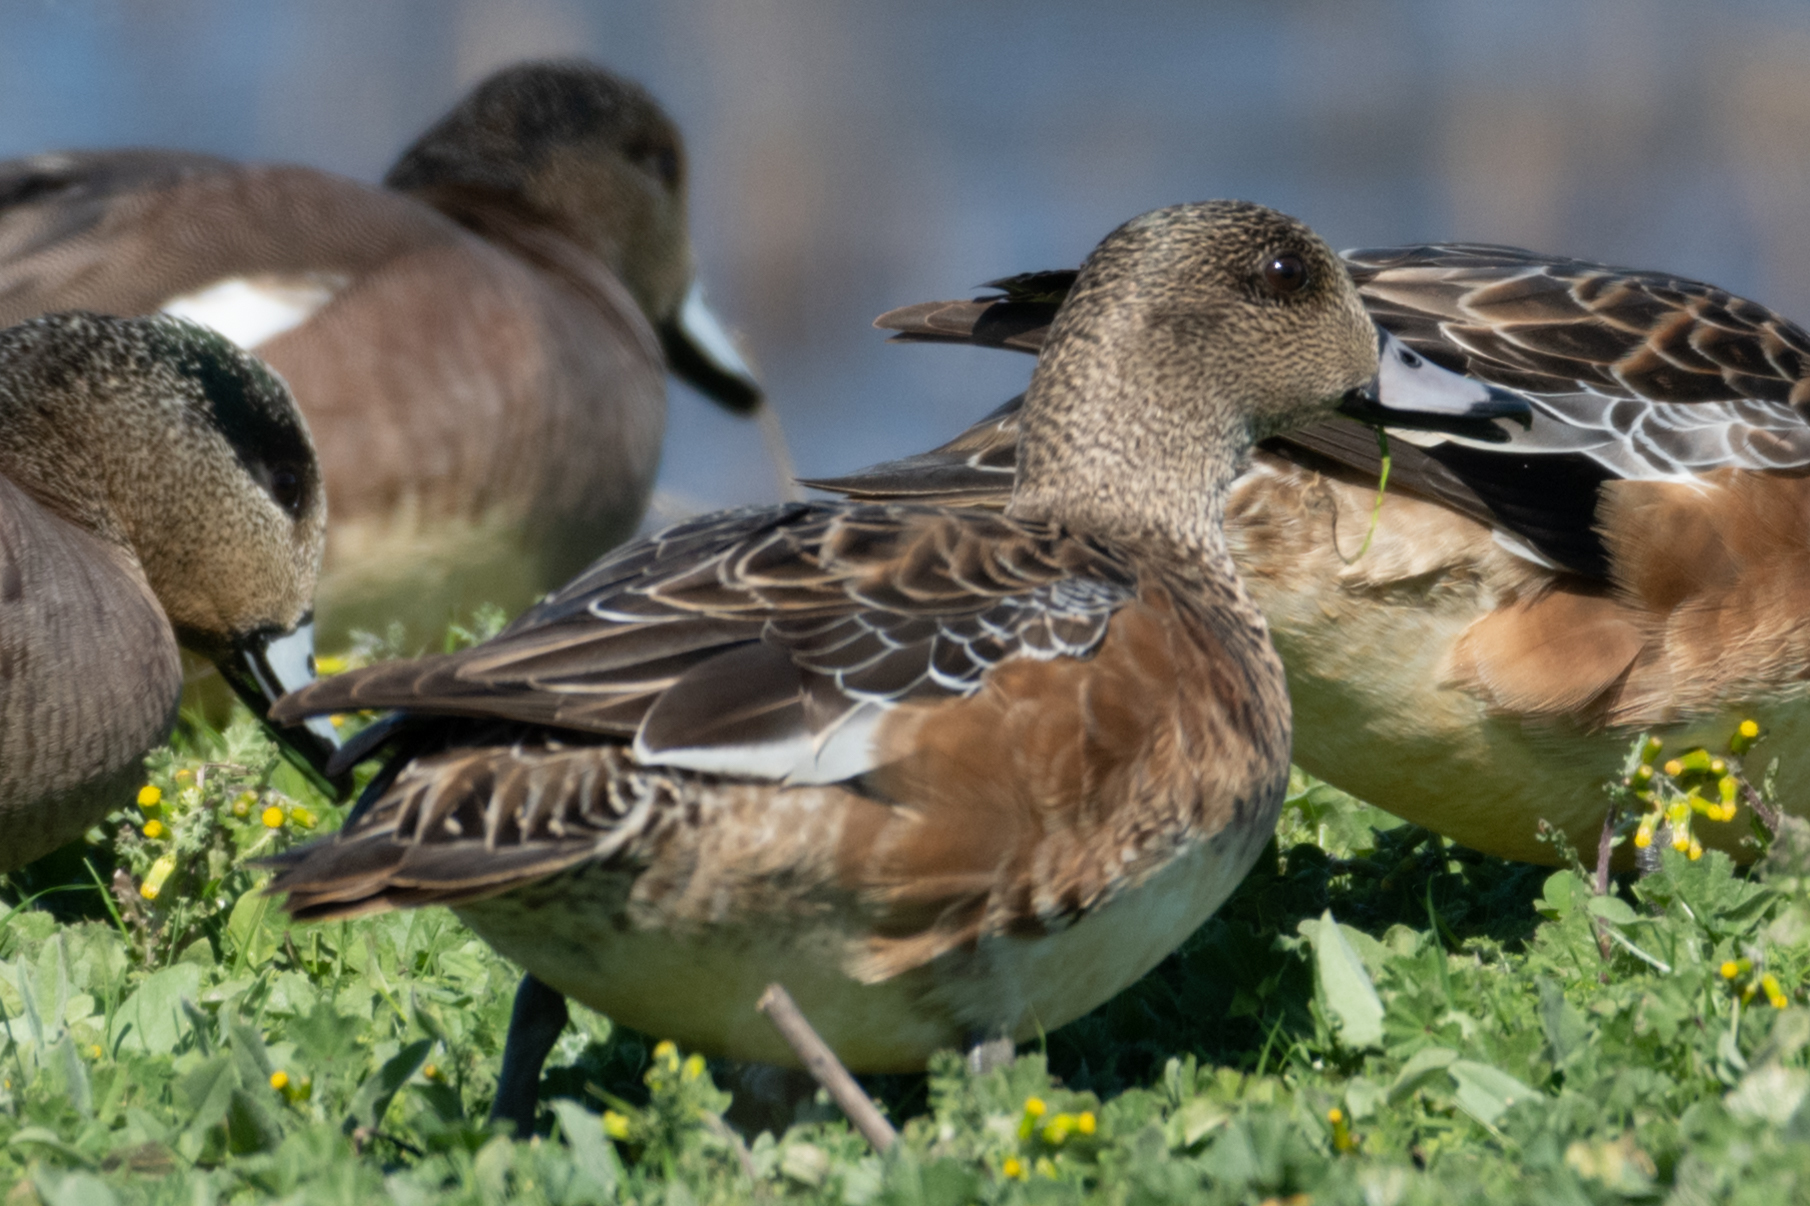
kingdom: Animalia
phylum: Chordata
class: Aves
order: Anseriformes
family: Anatidae
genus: Mareca
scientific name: Mareca americana
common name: American wigeon
